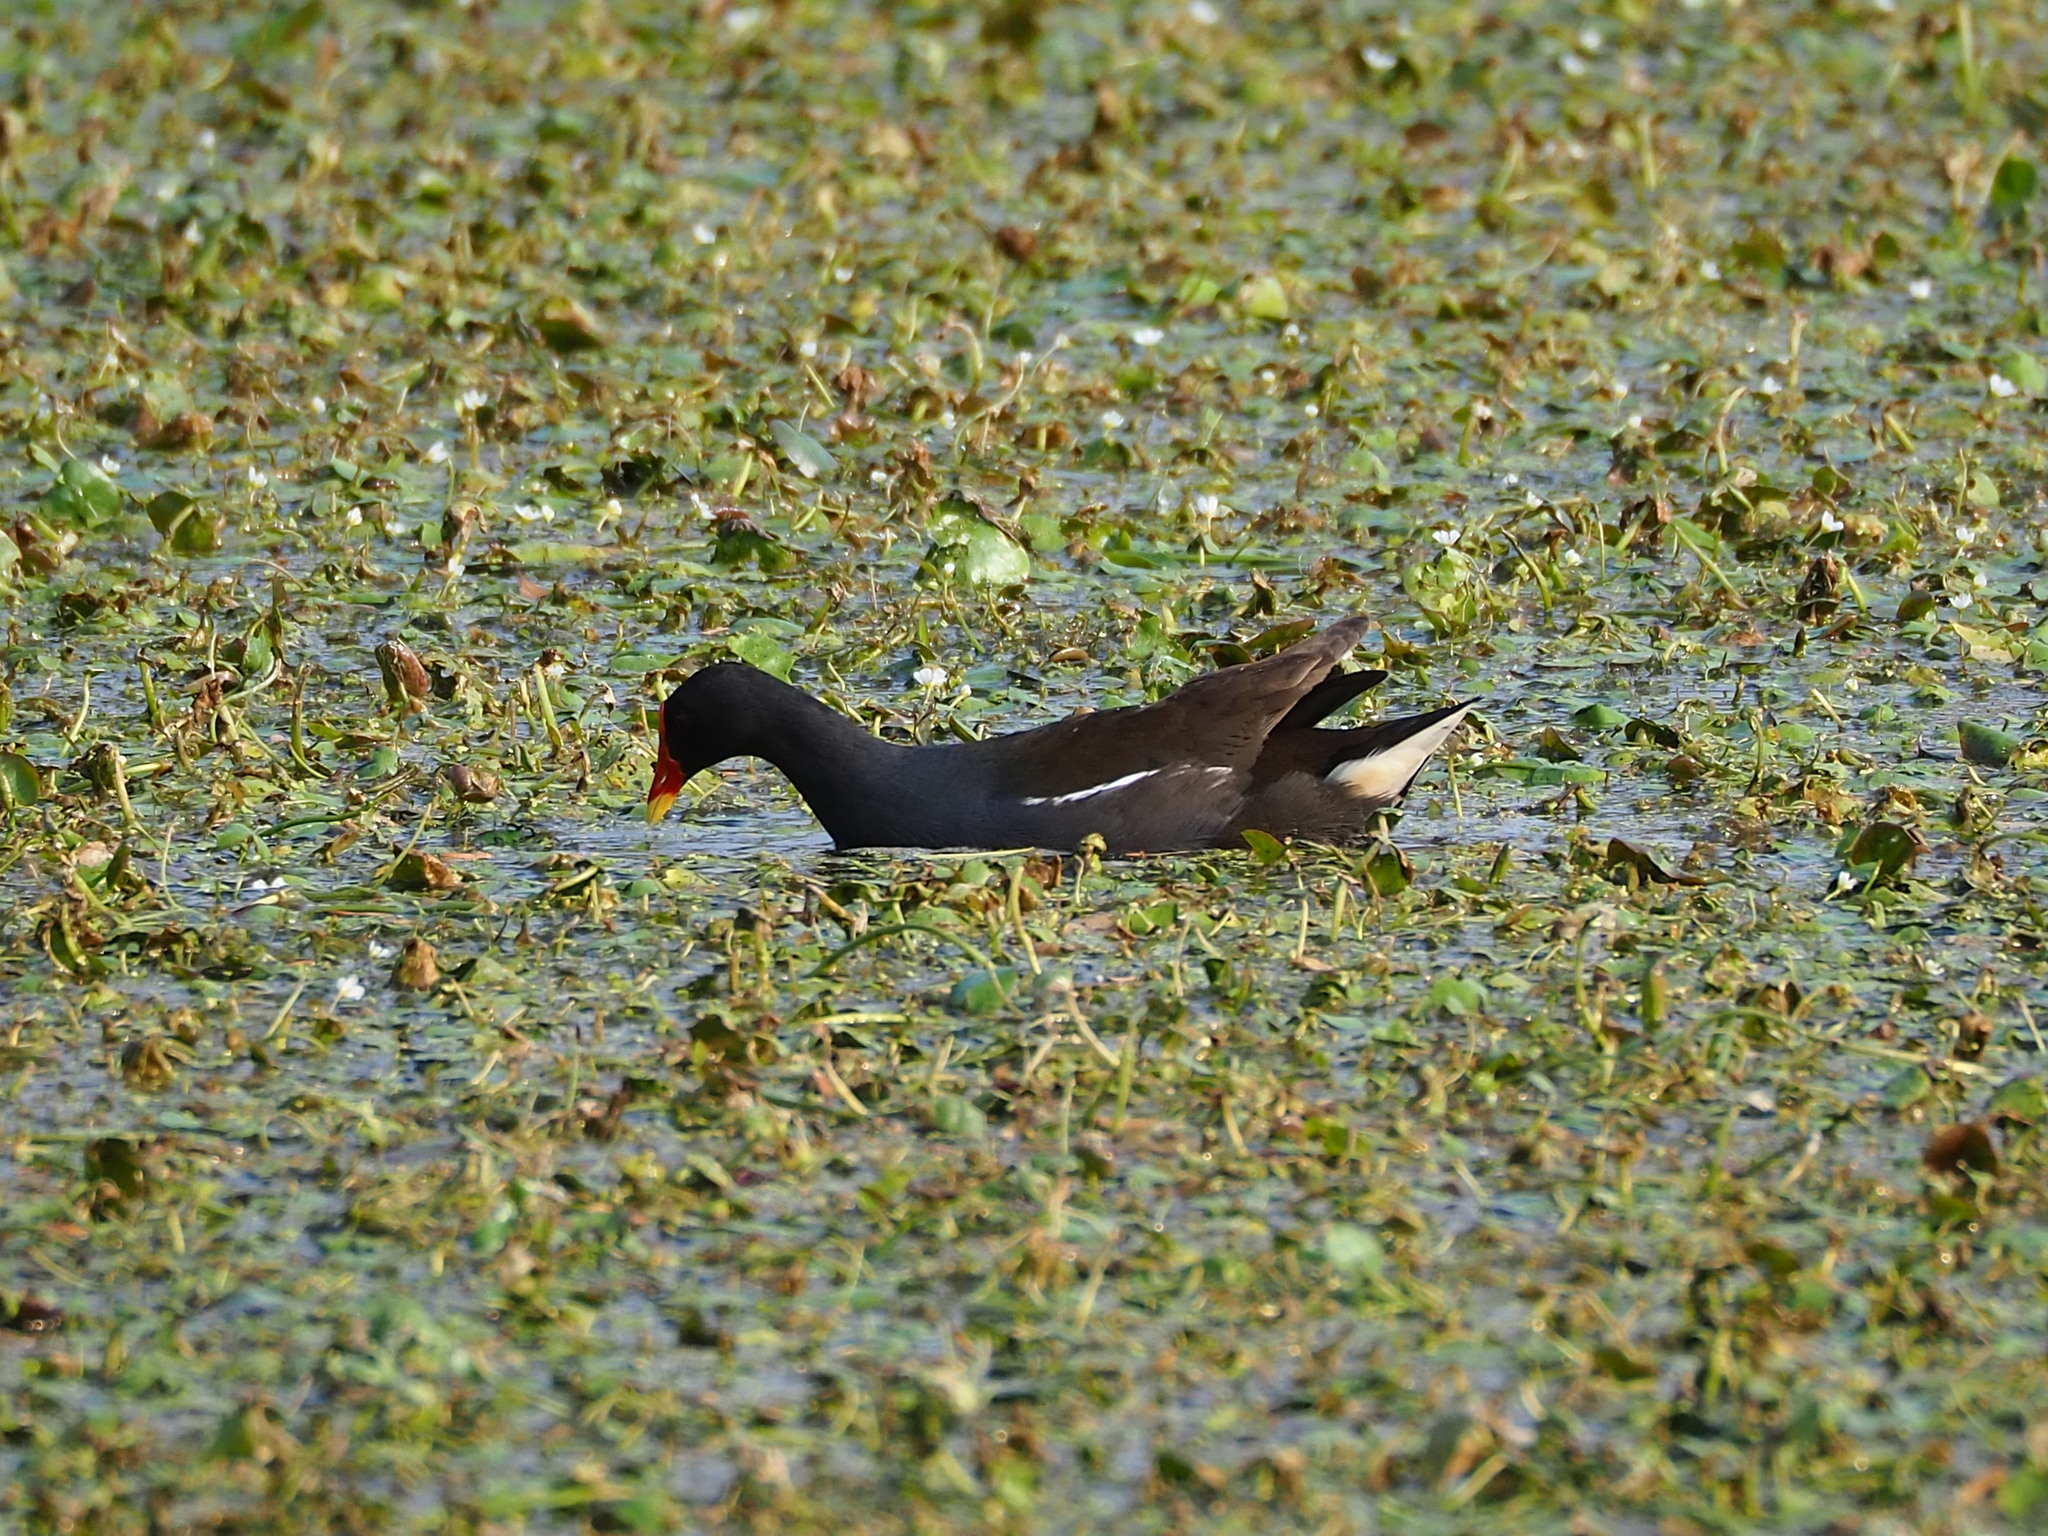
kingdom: Animalia
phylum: Chordata
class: Aves
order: Gruiformes
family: Rallidae
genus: Gallinula
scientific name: Gallinula chloropus
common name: Common moorhen
